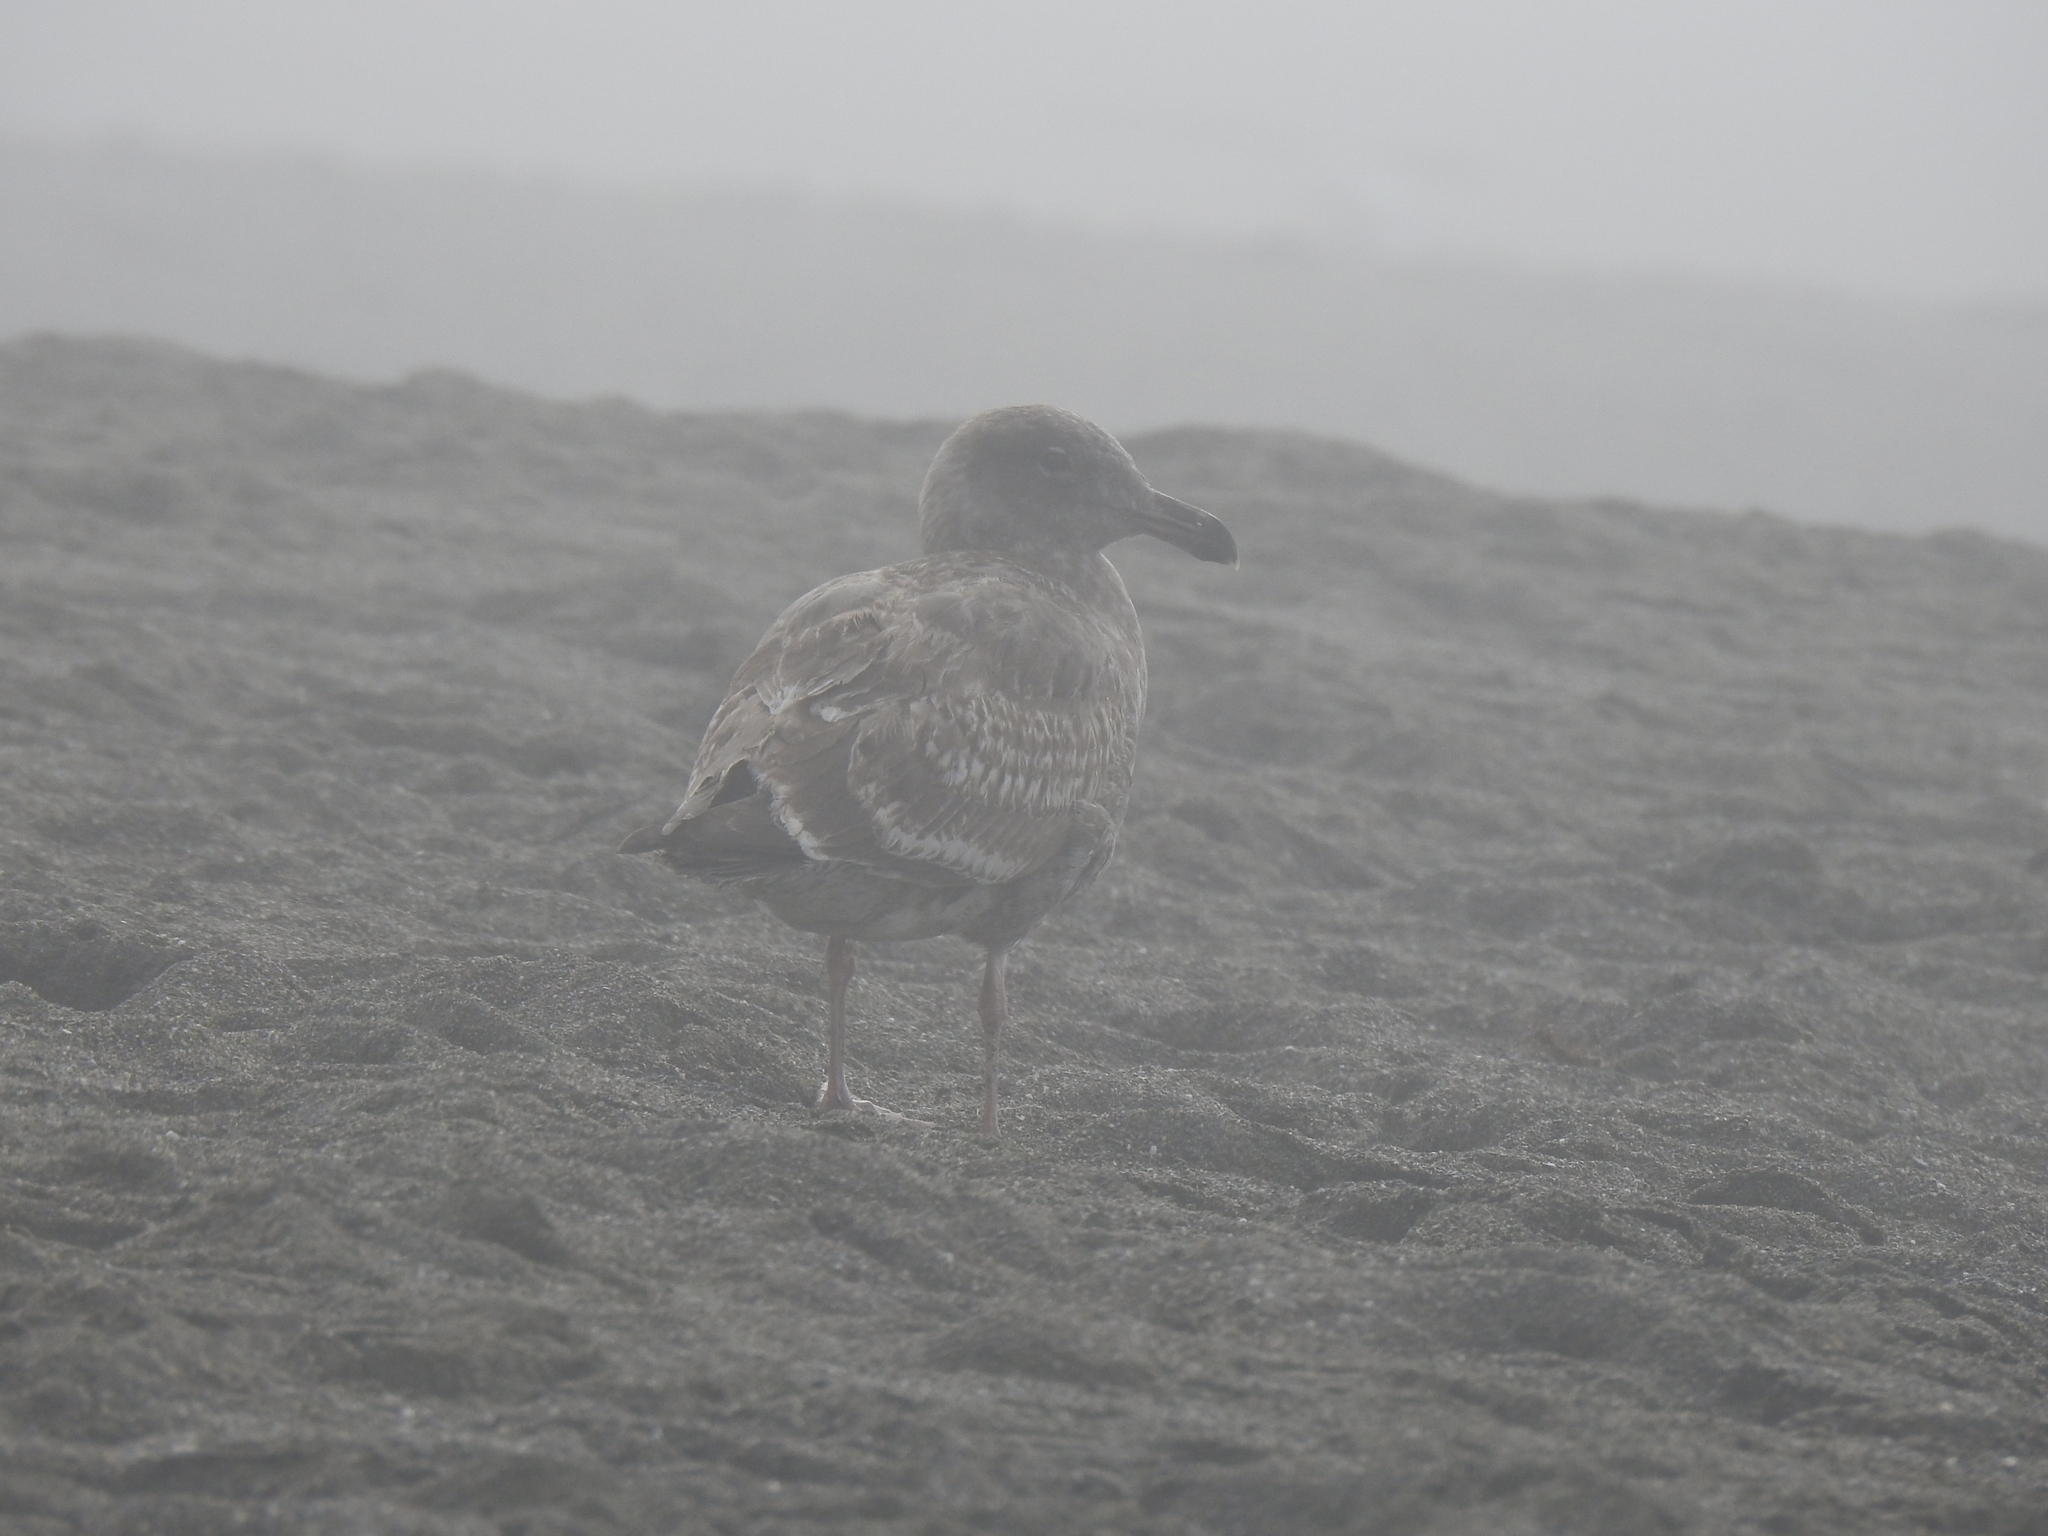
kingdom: Animalia
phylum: Chordata
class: Aves
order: Charadriiformes
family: Laridae
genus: Larus
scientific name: Larus occidentalis
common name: Western gull
